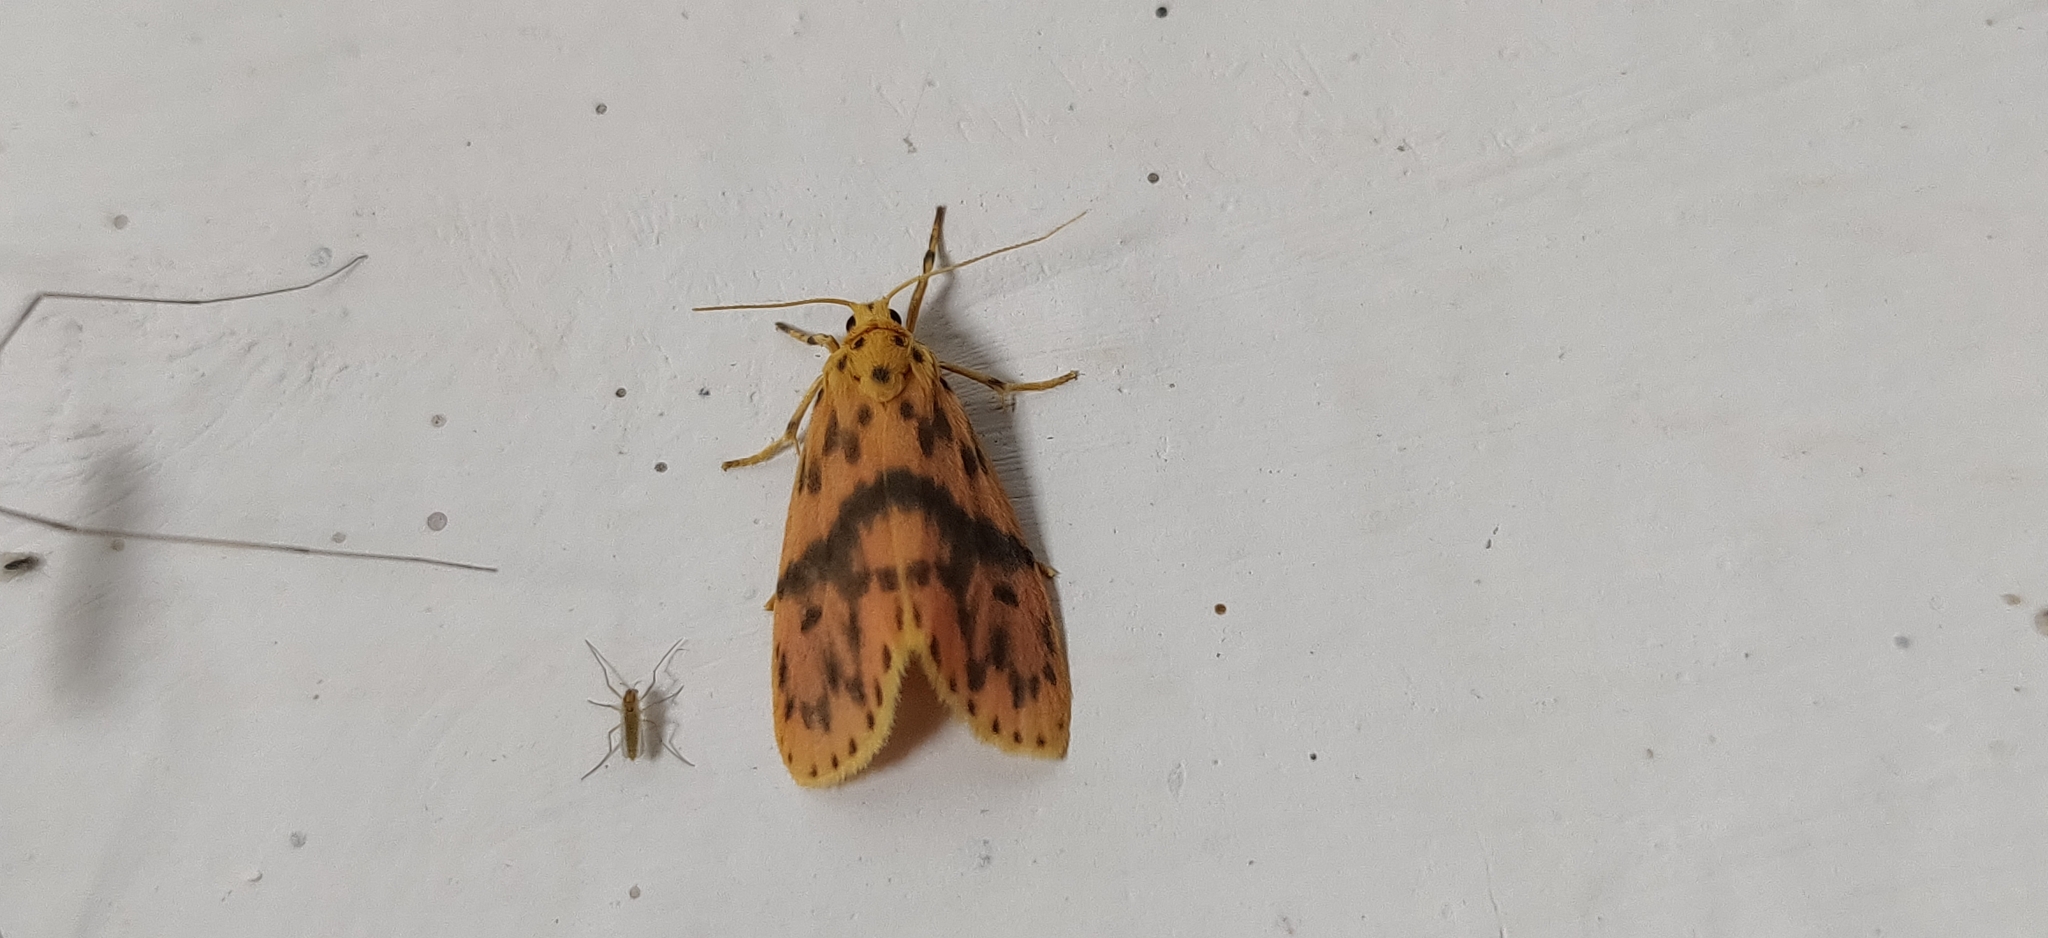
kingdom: Animalia
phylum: Arthropoda
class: Insecta
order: Lepidoptera
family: Erebidae
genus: Arctelene
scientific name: Arctelene arcuata
